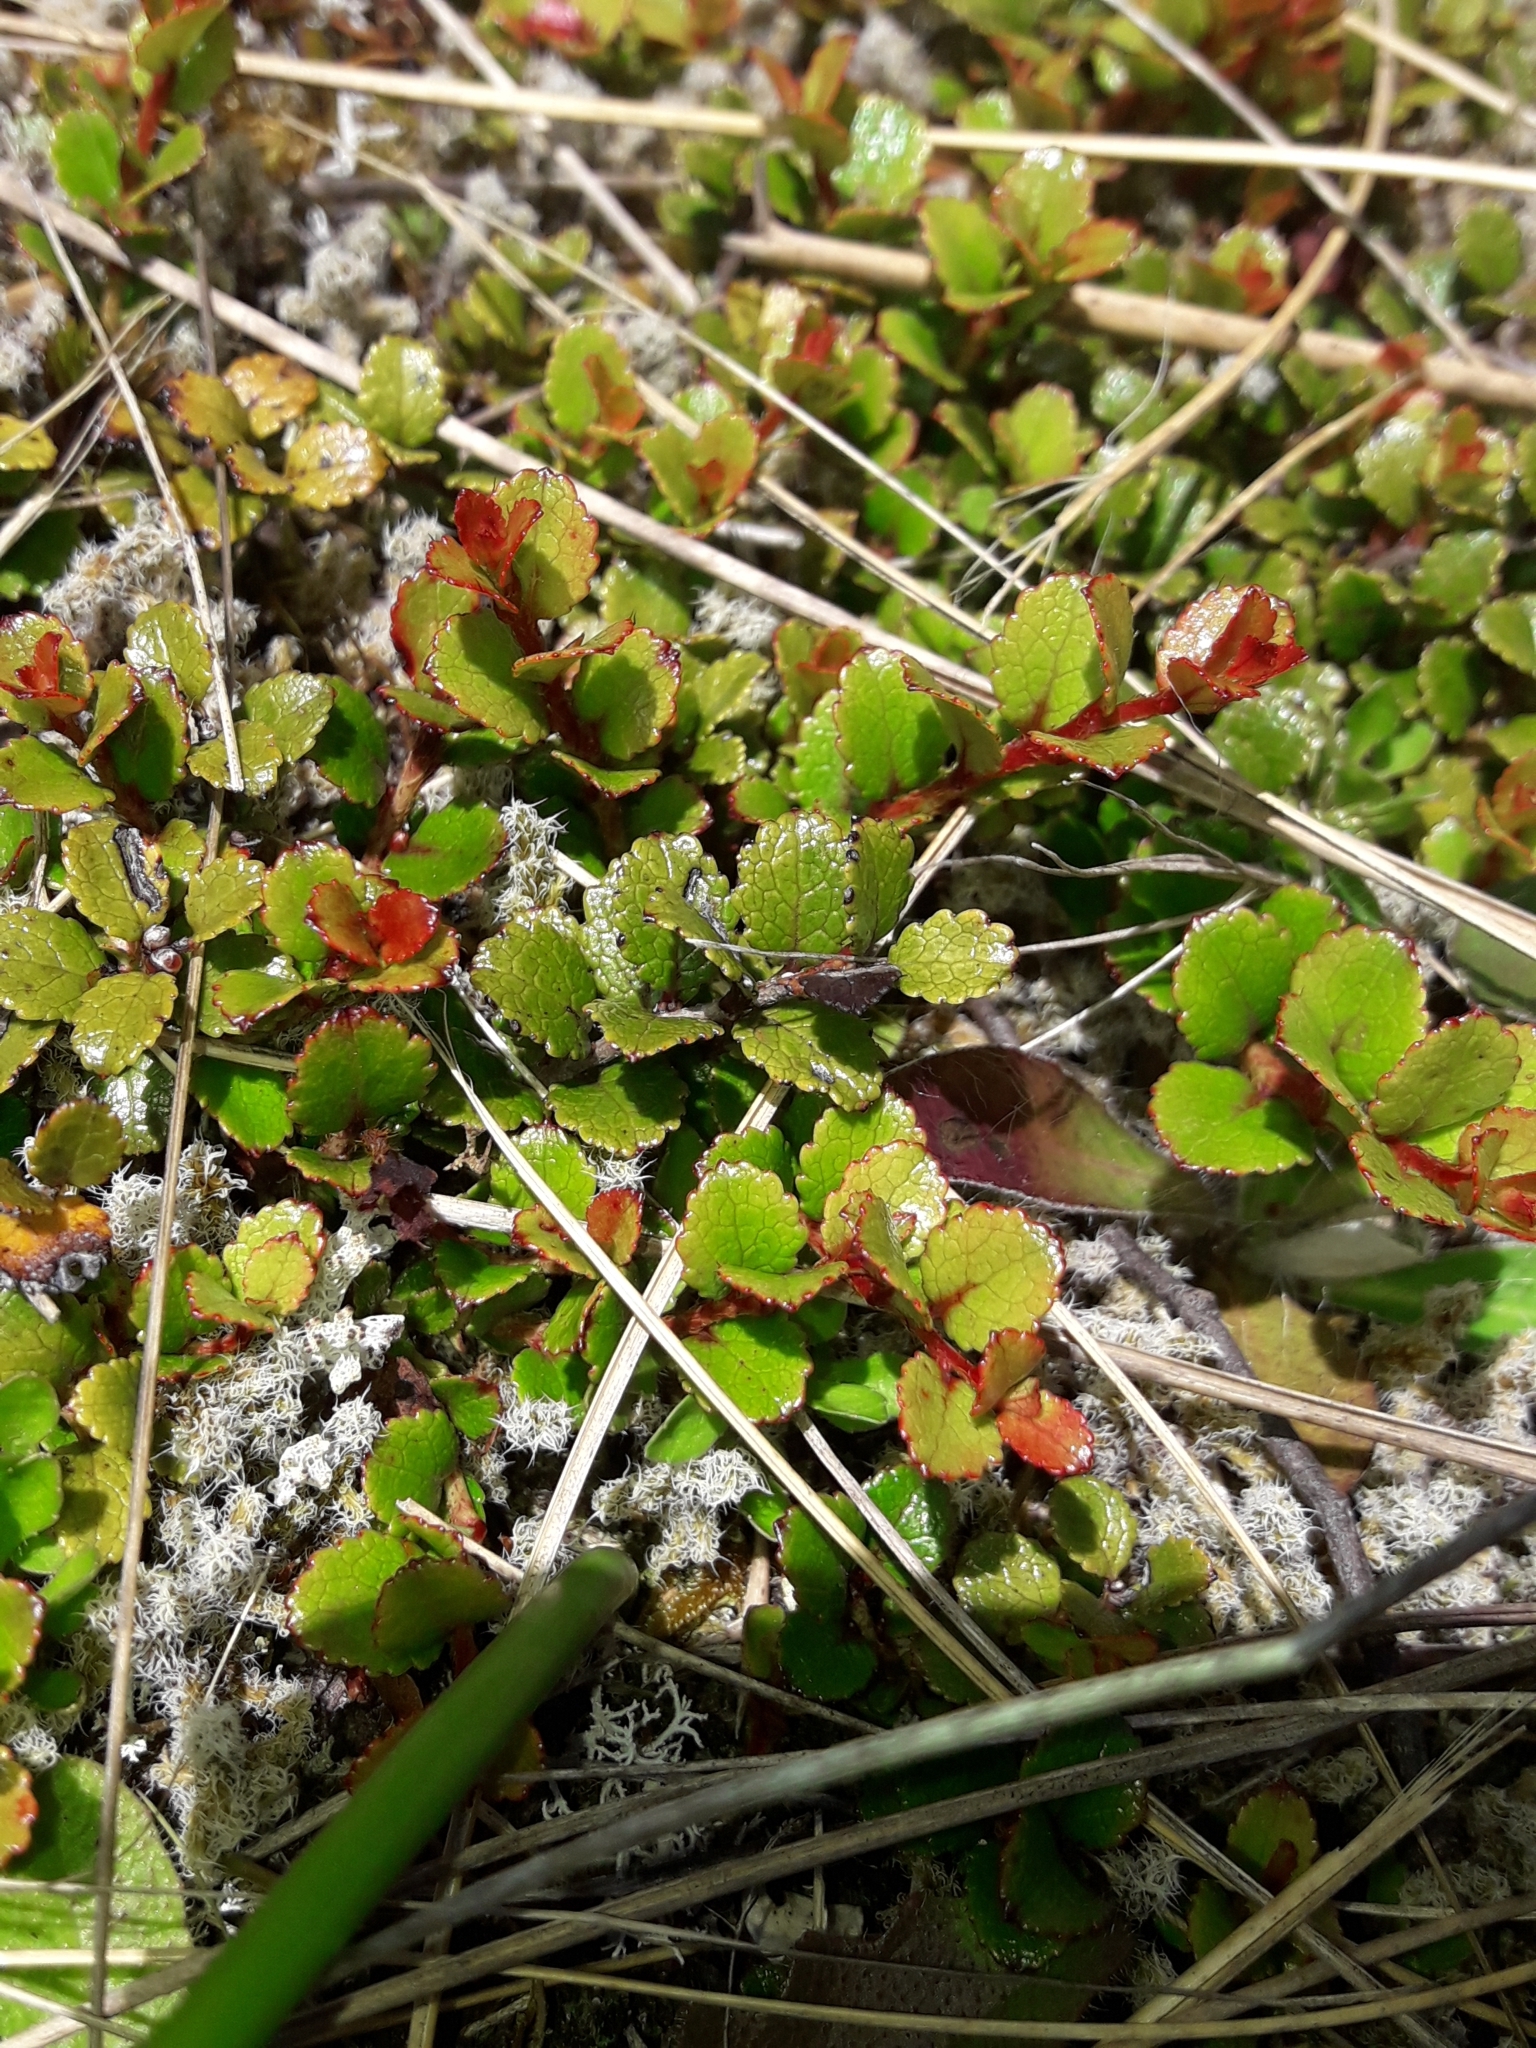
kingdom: Plantae
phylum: Tracheophyta
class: Magnoliopsida
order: Ericales
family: Ericaceae
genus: Gaultheria
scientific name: Gaultheria depressa
